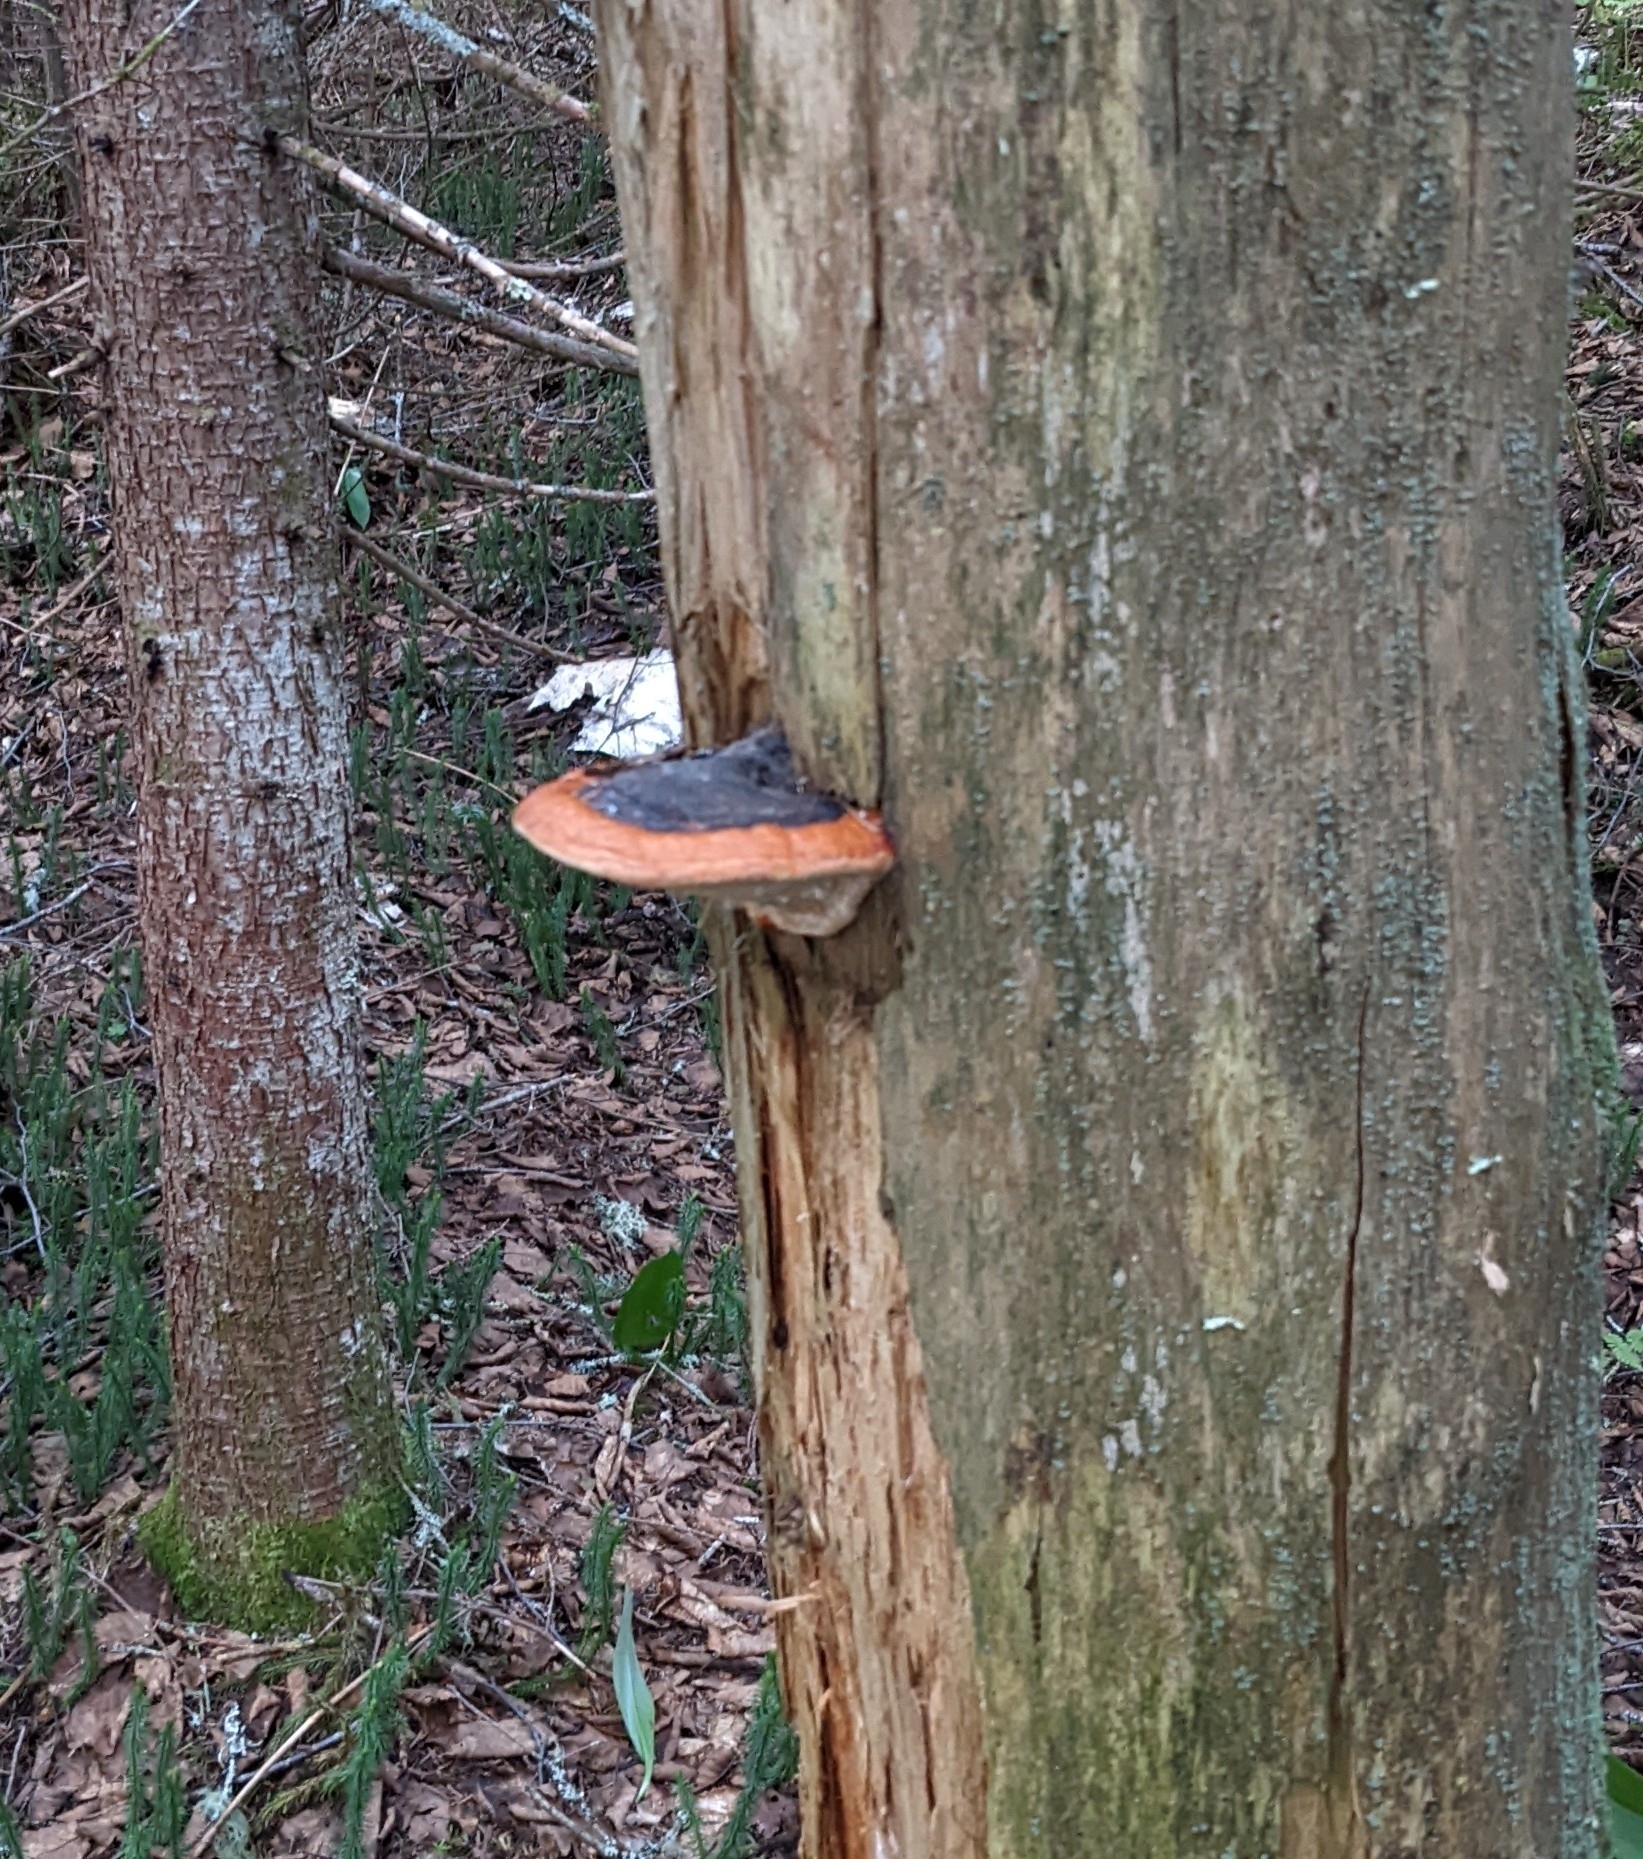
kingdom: Fungi
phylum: Basidiomycota
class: Agaricomycetes
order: Polyporales
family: Fomitopsidaceae
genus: Fomitopsis
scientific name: Fomitopsis mounceae
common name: Northern red belt
